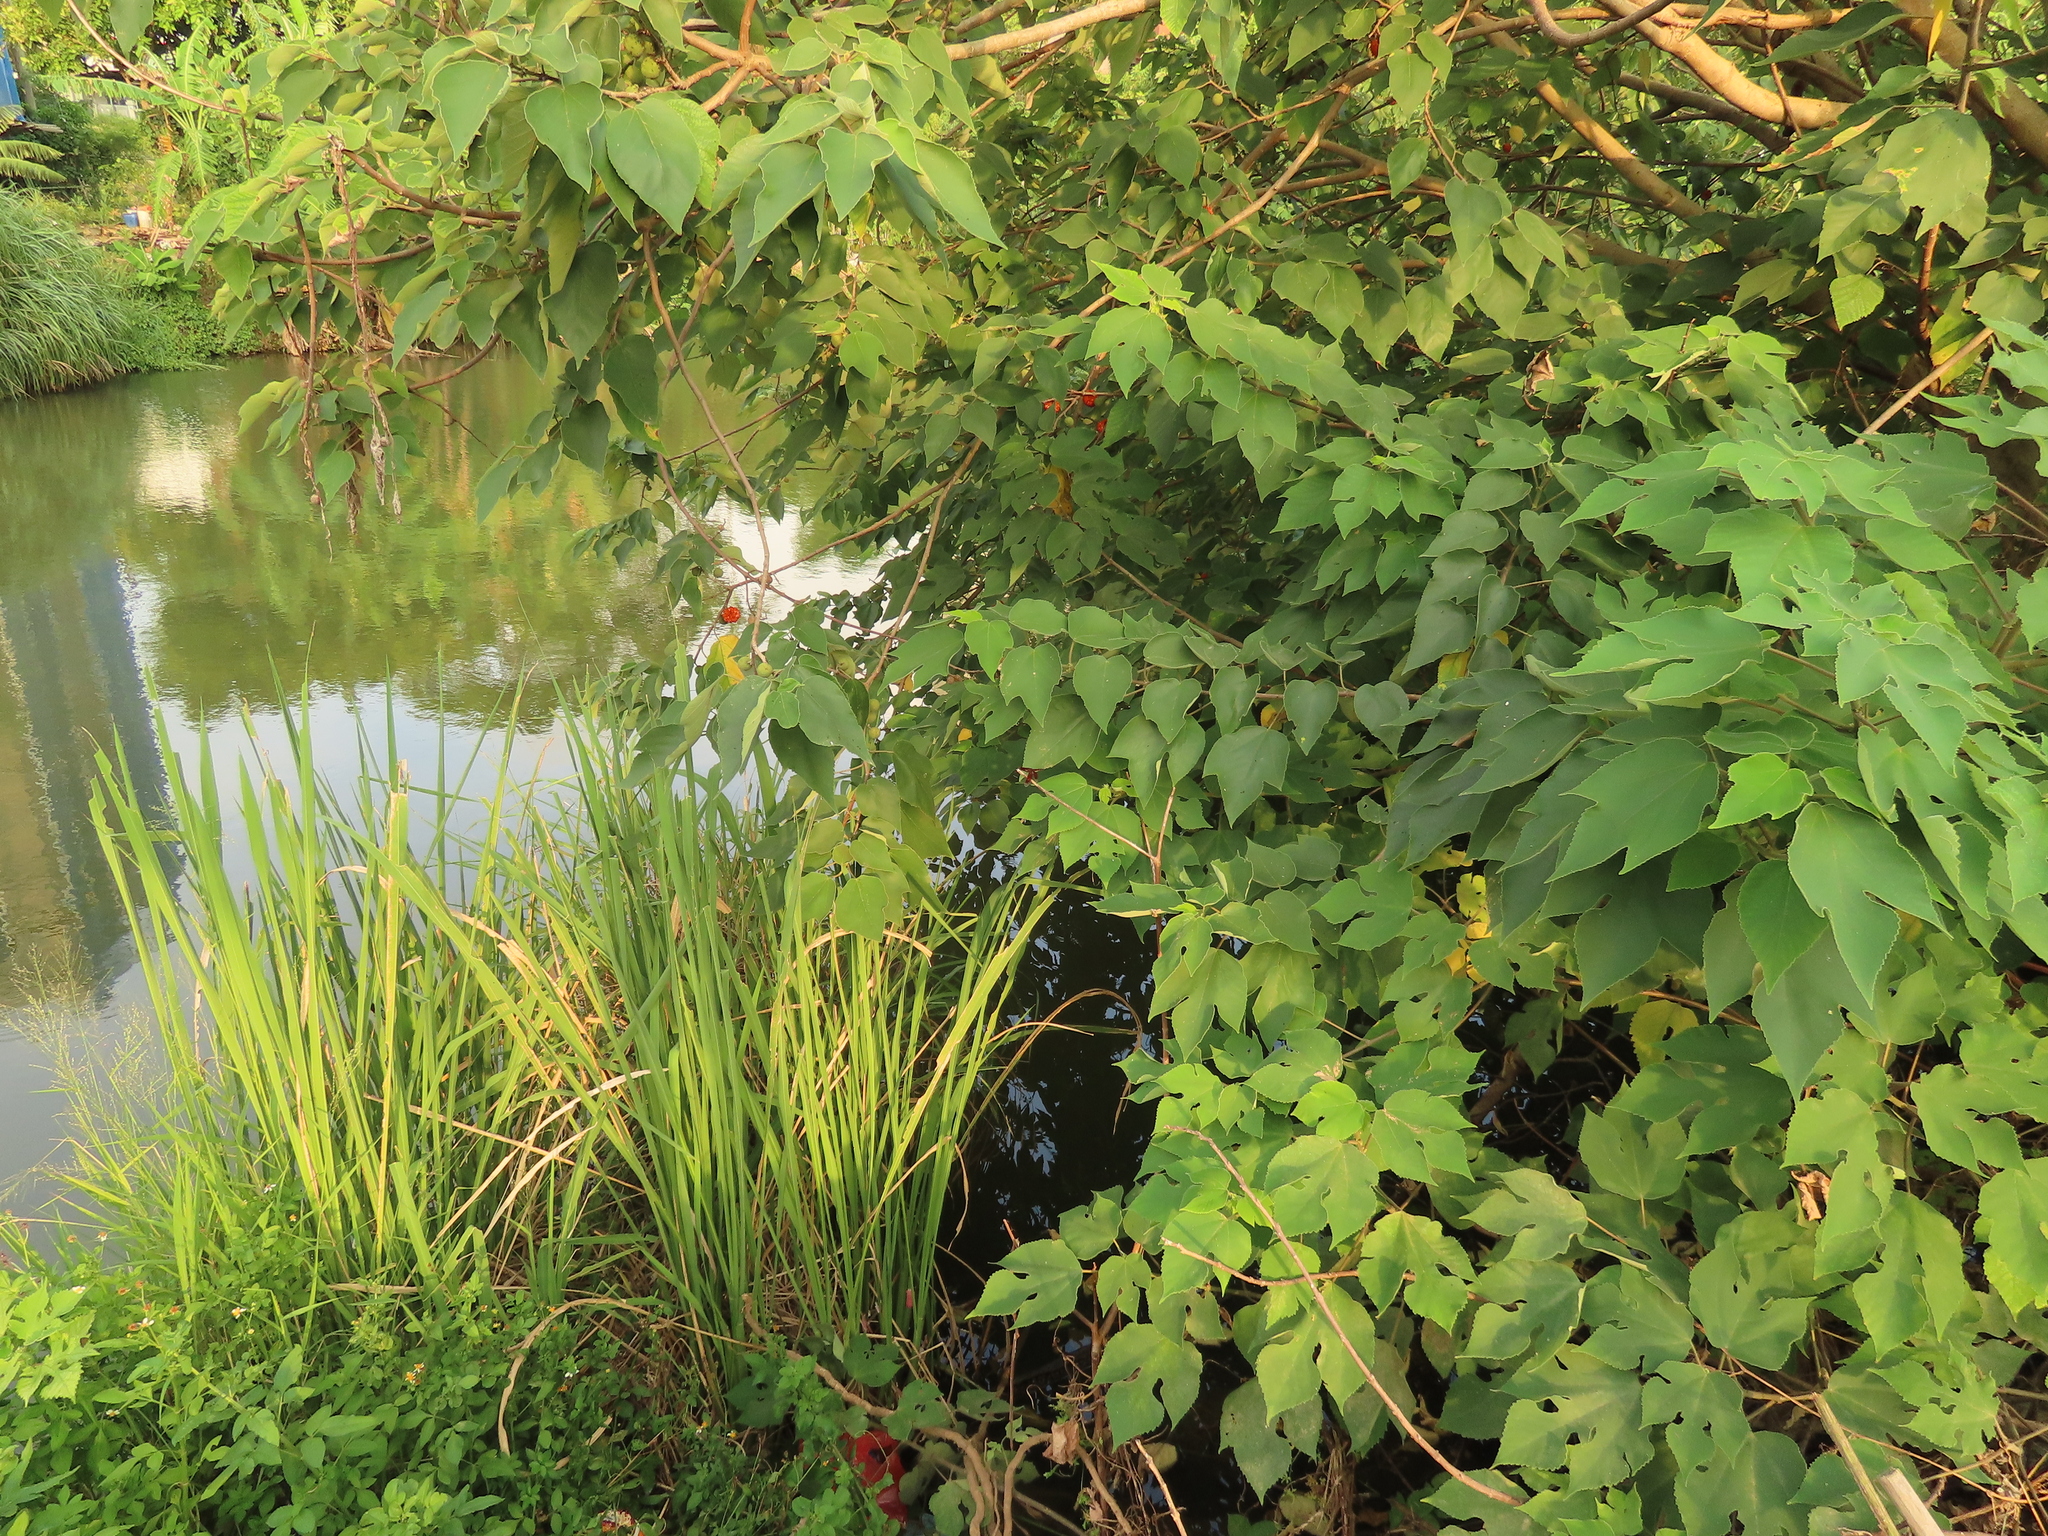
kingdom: Animalia
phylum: Arthropoda
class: Insecta
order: Odonata
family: Libellulidae
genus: Neurothemis
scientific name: Neurothemis taiwanensis
